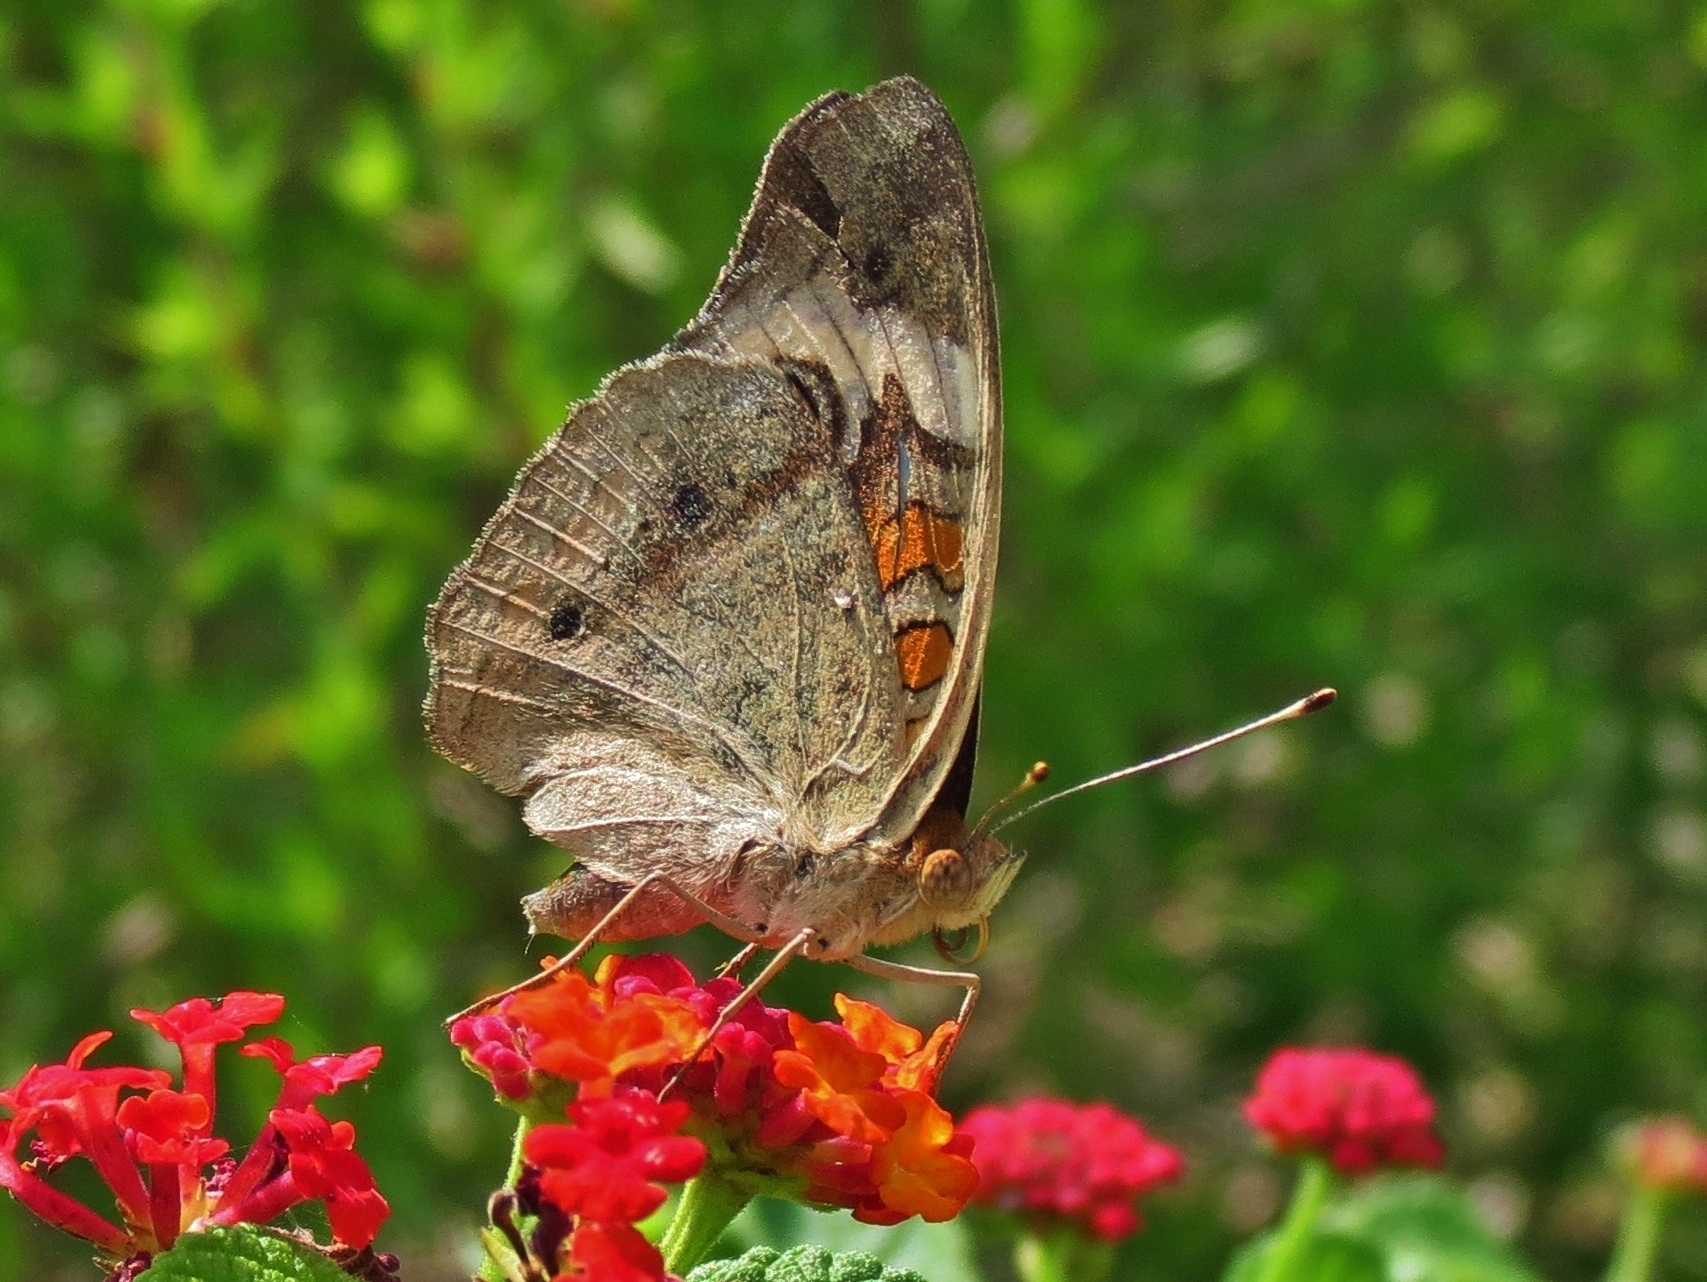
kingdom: Animalia
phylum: Arthropoda
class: Insecta
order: Lepidoptera
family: Nymphalidae
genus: Junonia
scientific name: Junonia coenia
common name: Common buckeye
